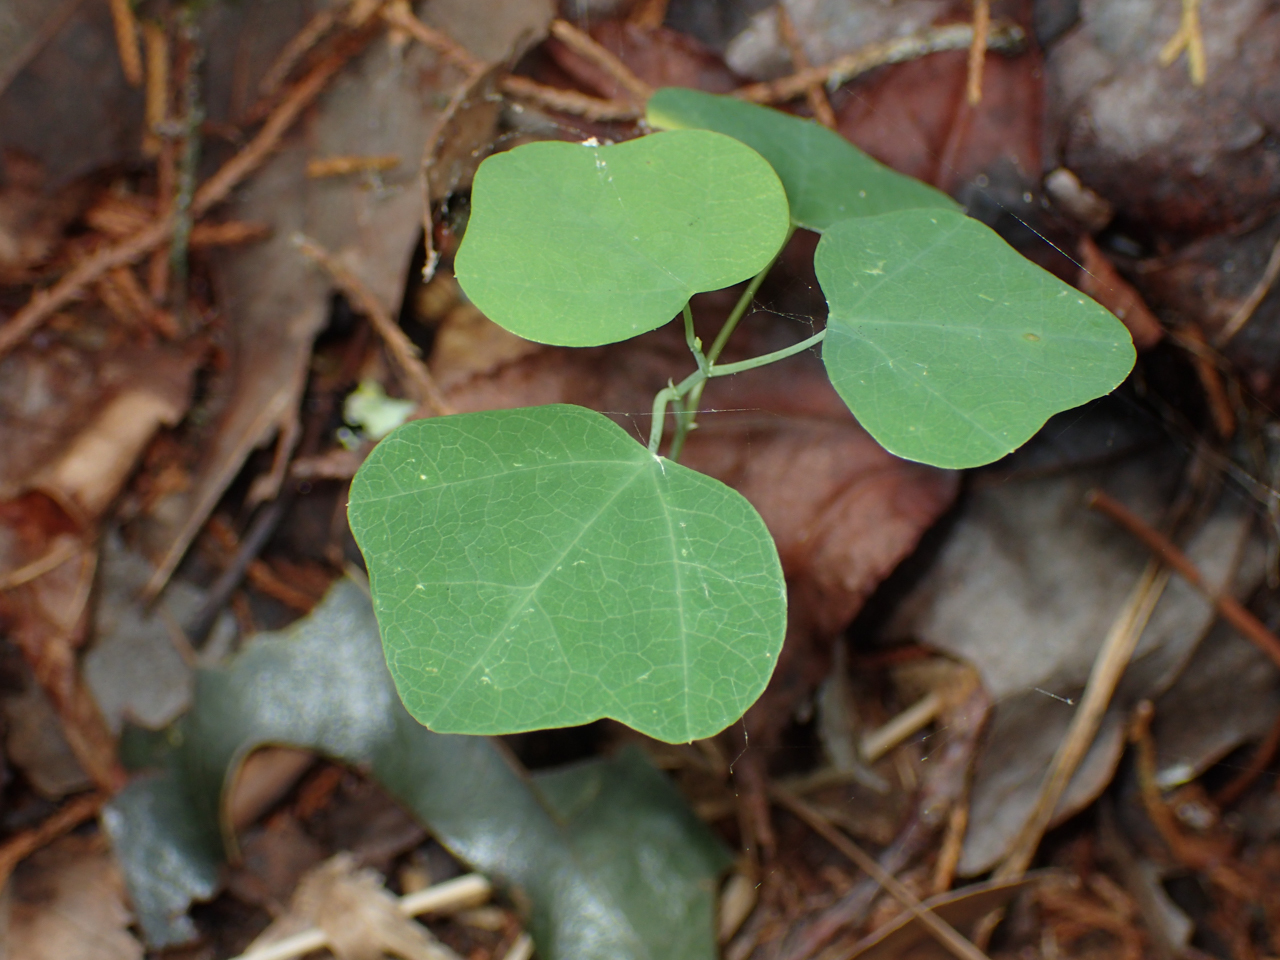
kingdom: Plantae
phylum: Tracheophyta
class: Magnoliopsida
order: Malpighiales
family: Passifloraceae
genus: Passiflora
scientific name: Passiflora lutea
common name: Yellow passionflower
